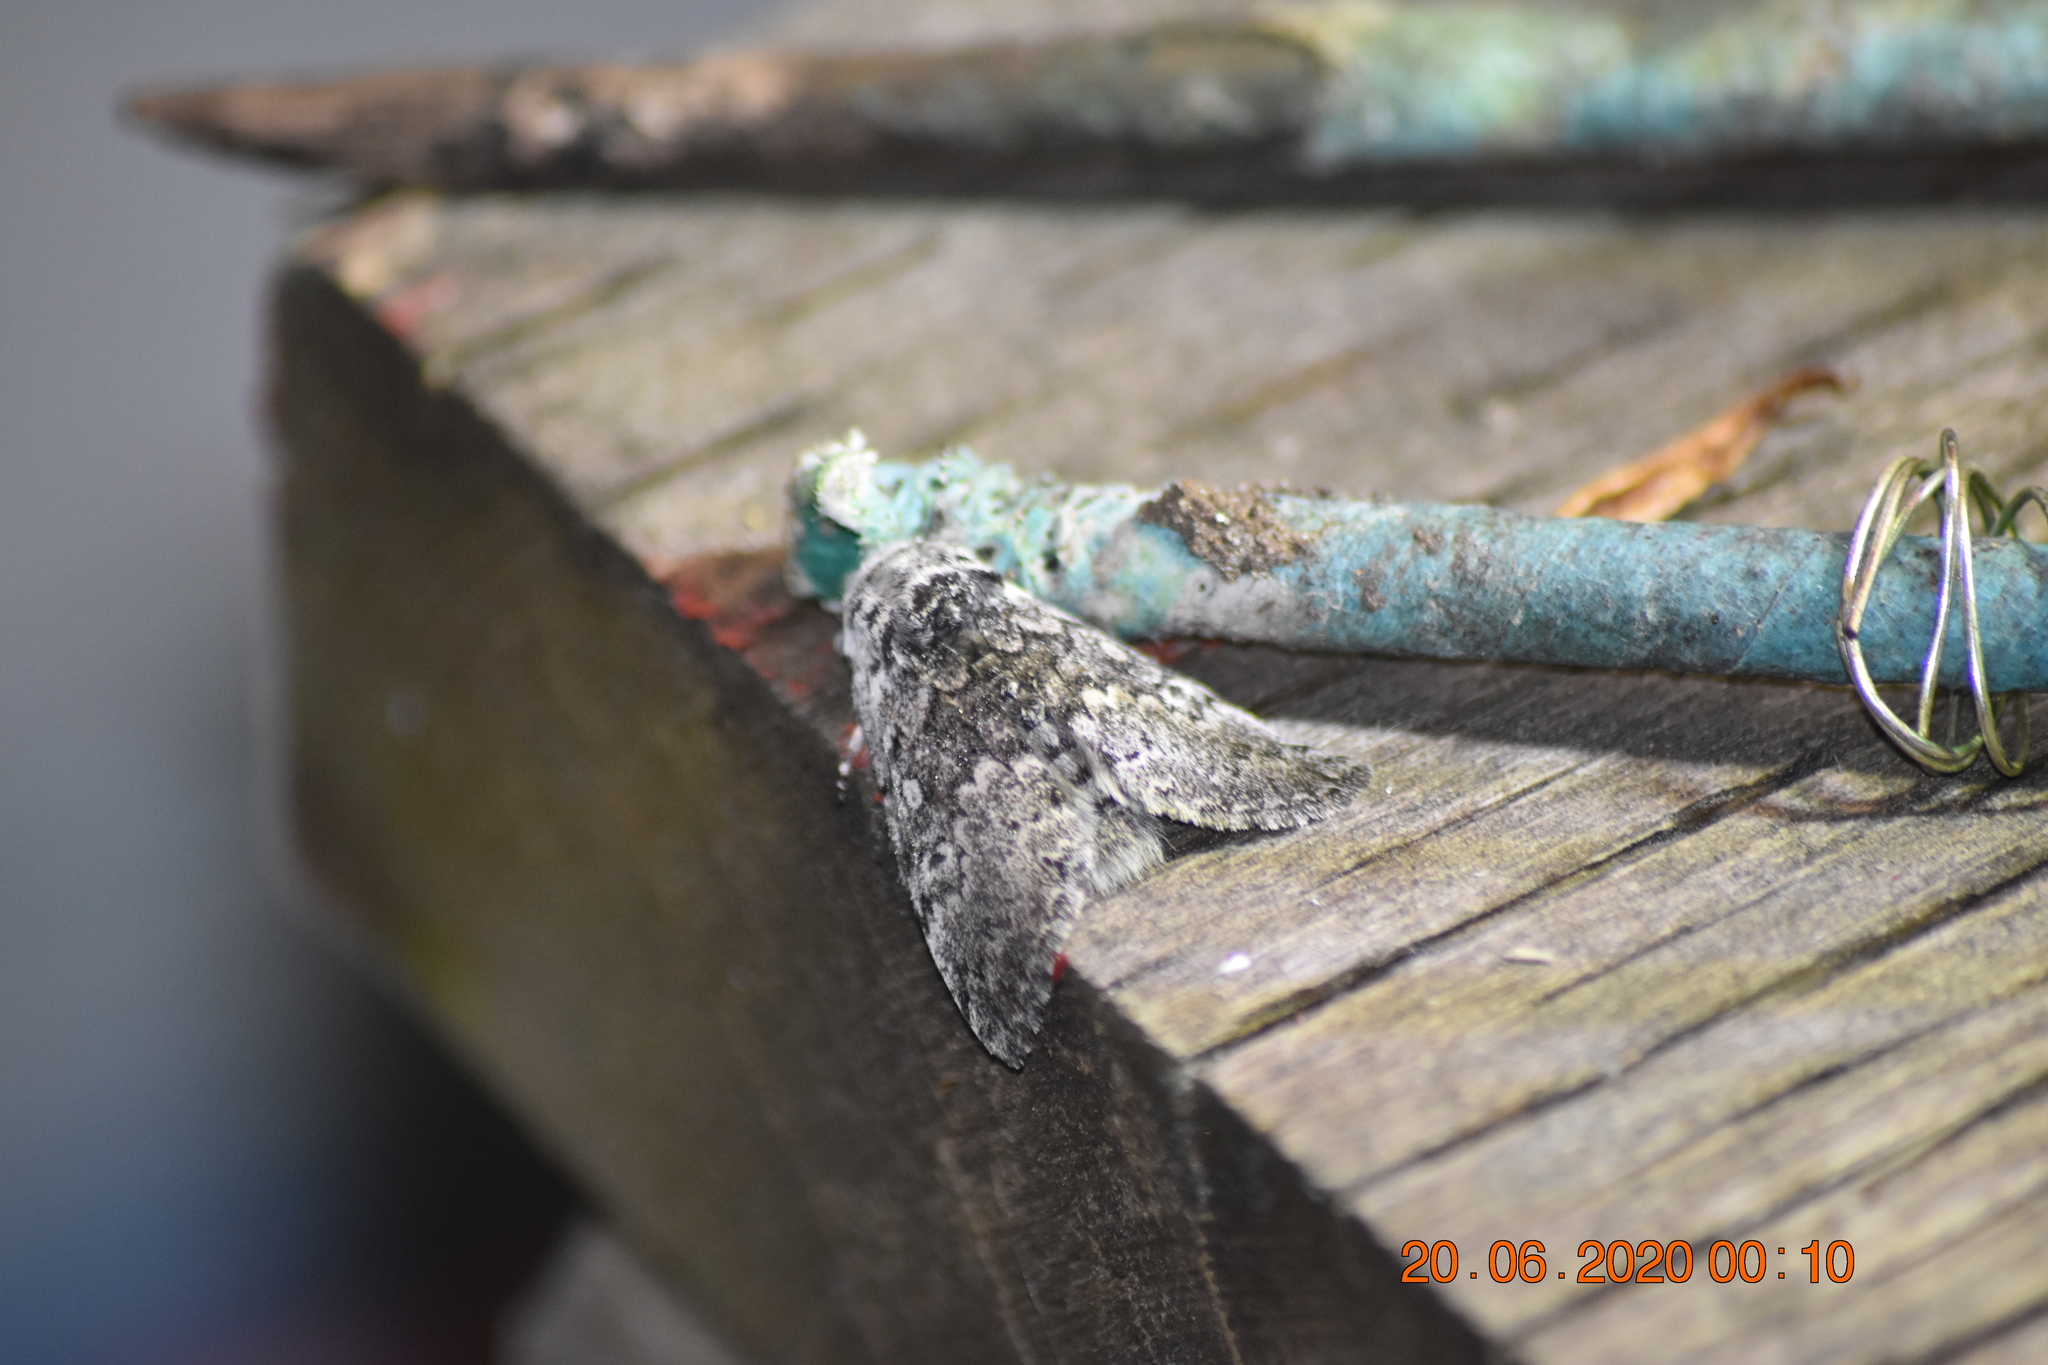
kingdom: Animalia
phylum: Arthropoda
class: Insecta
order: Lepidoptera
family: Noctuidae
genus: Colocasia
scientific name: Colocasia propinquilinea
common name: Close-banded demas
